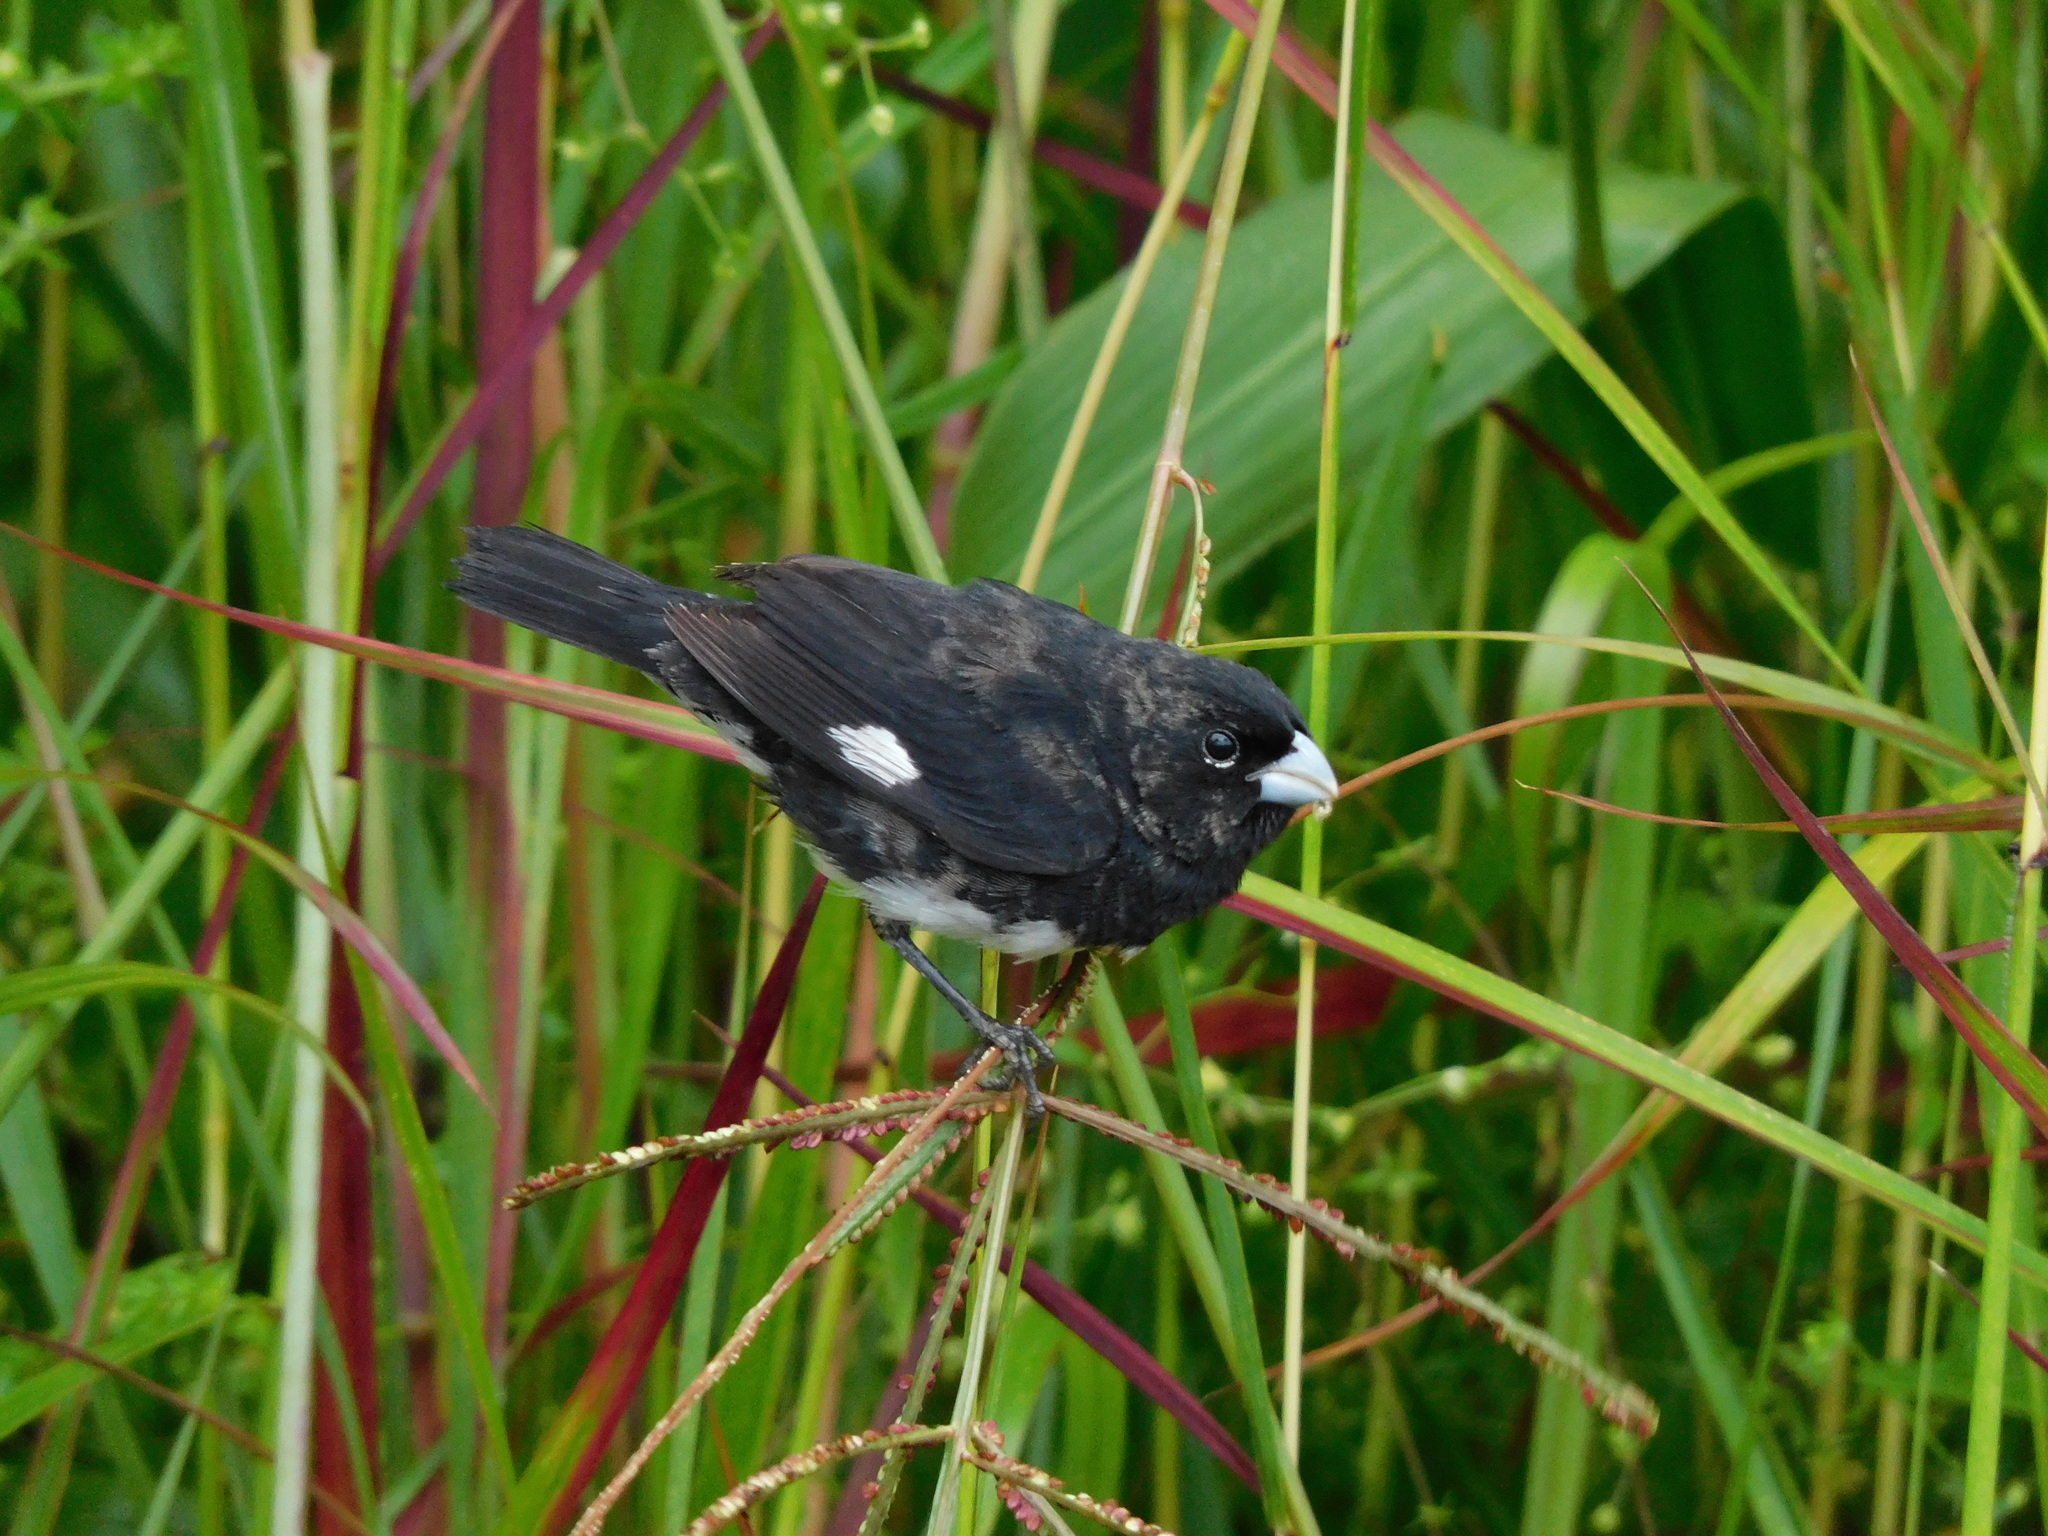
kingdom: Animalia
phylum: Chordata
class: Aves
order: Passeriformes
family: Thraupidae
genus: Sporophila
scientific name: Sporophila luctuosa
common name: Black-and-white seedeater
